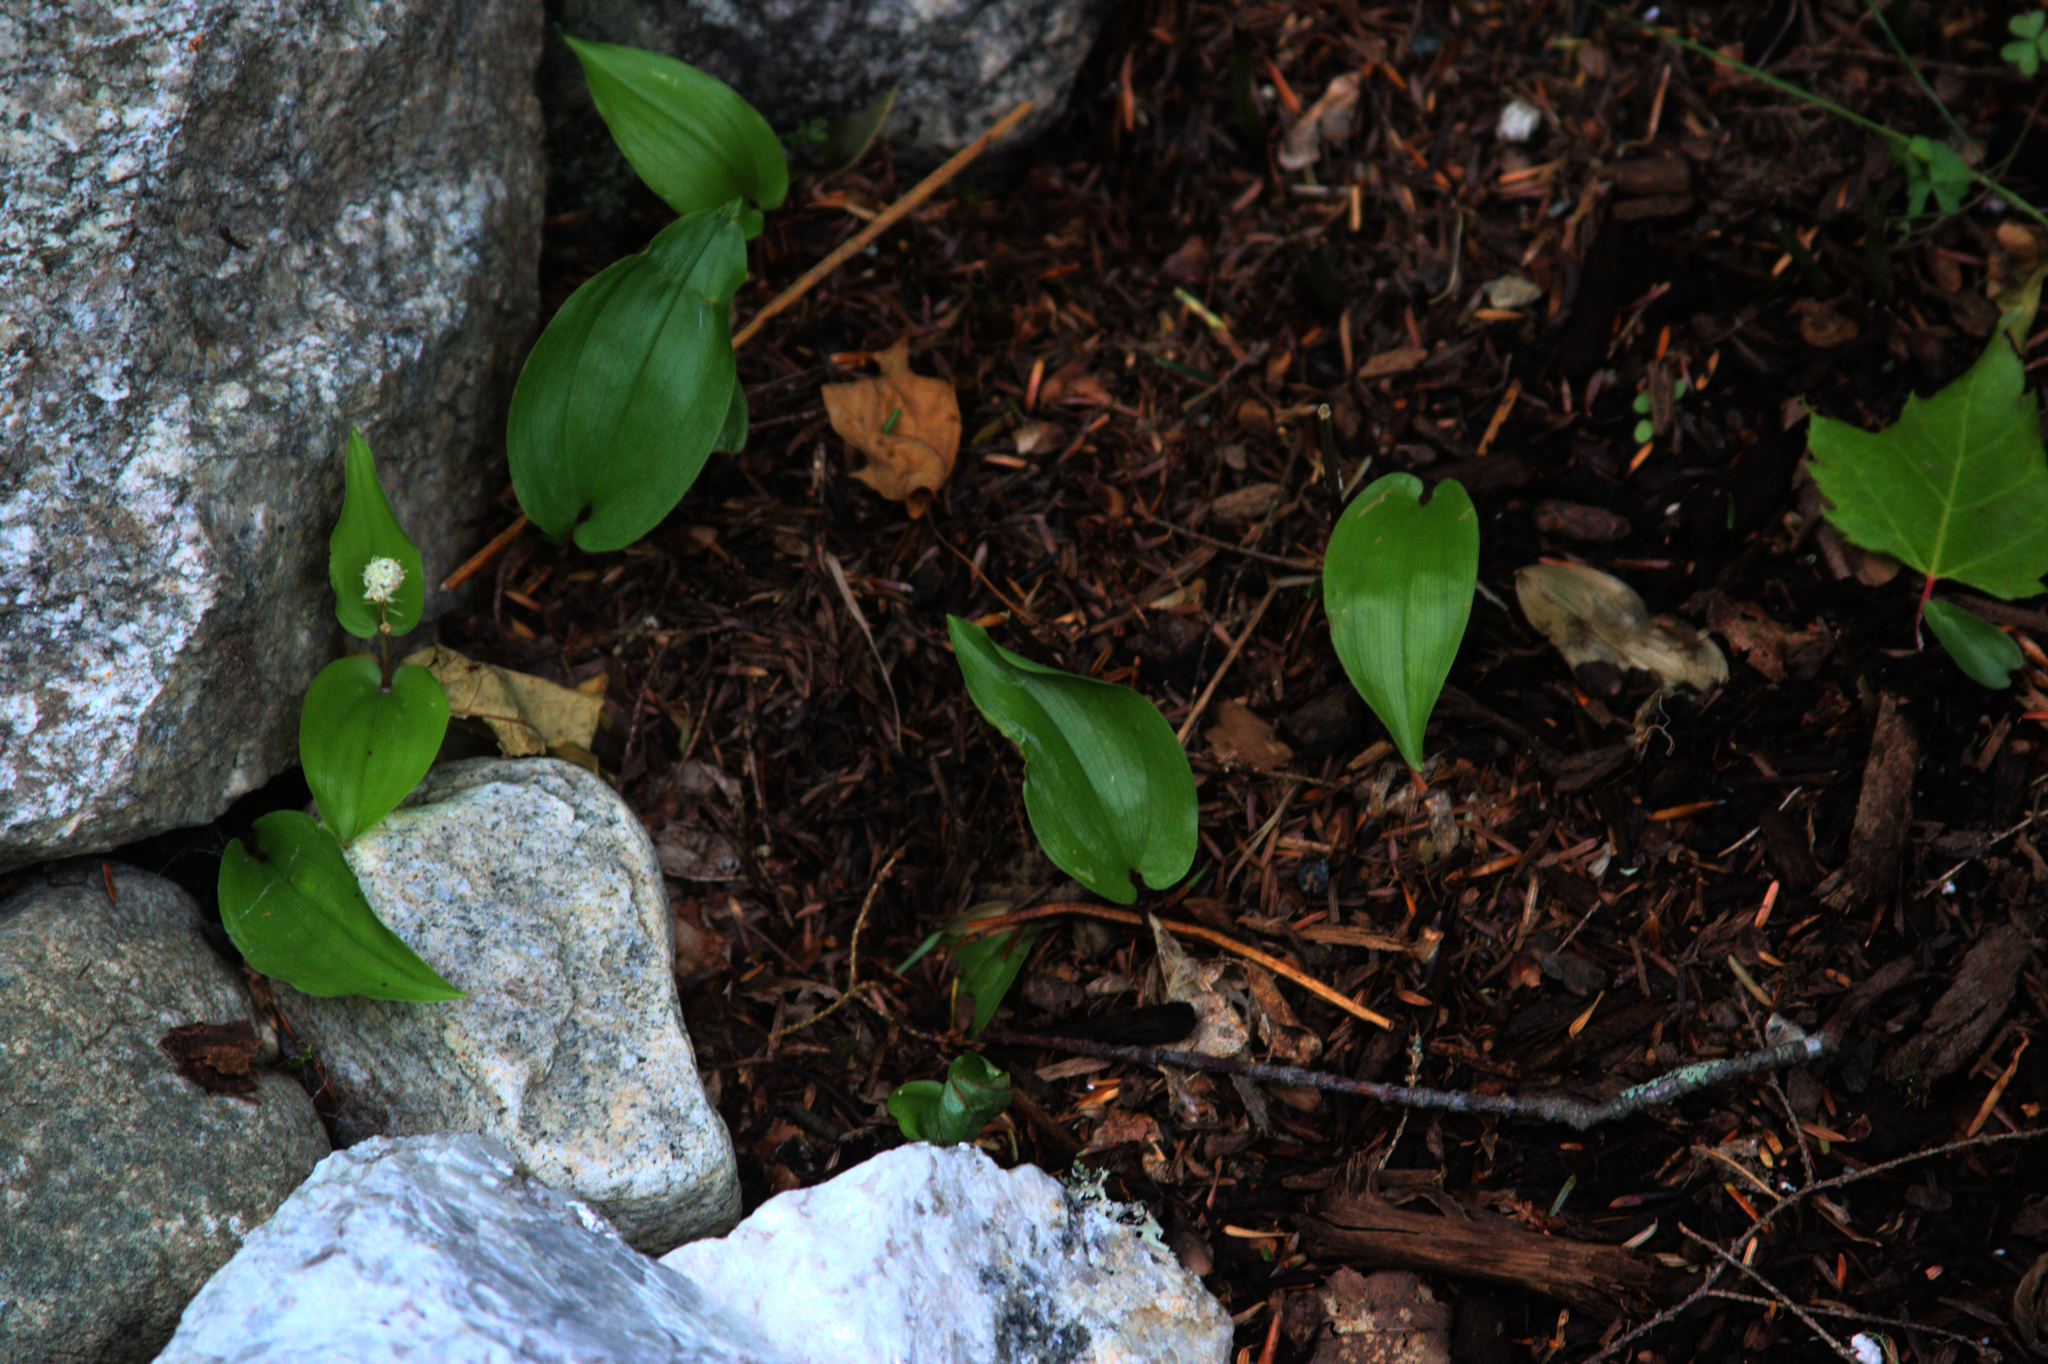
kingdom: Plantae
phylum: Tracheophyta
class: Liliopsida
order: Asparagales
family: Asparagaceae
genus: Maianthemum
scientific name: Maianthemum canadense
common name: False lily-of-the-valley
